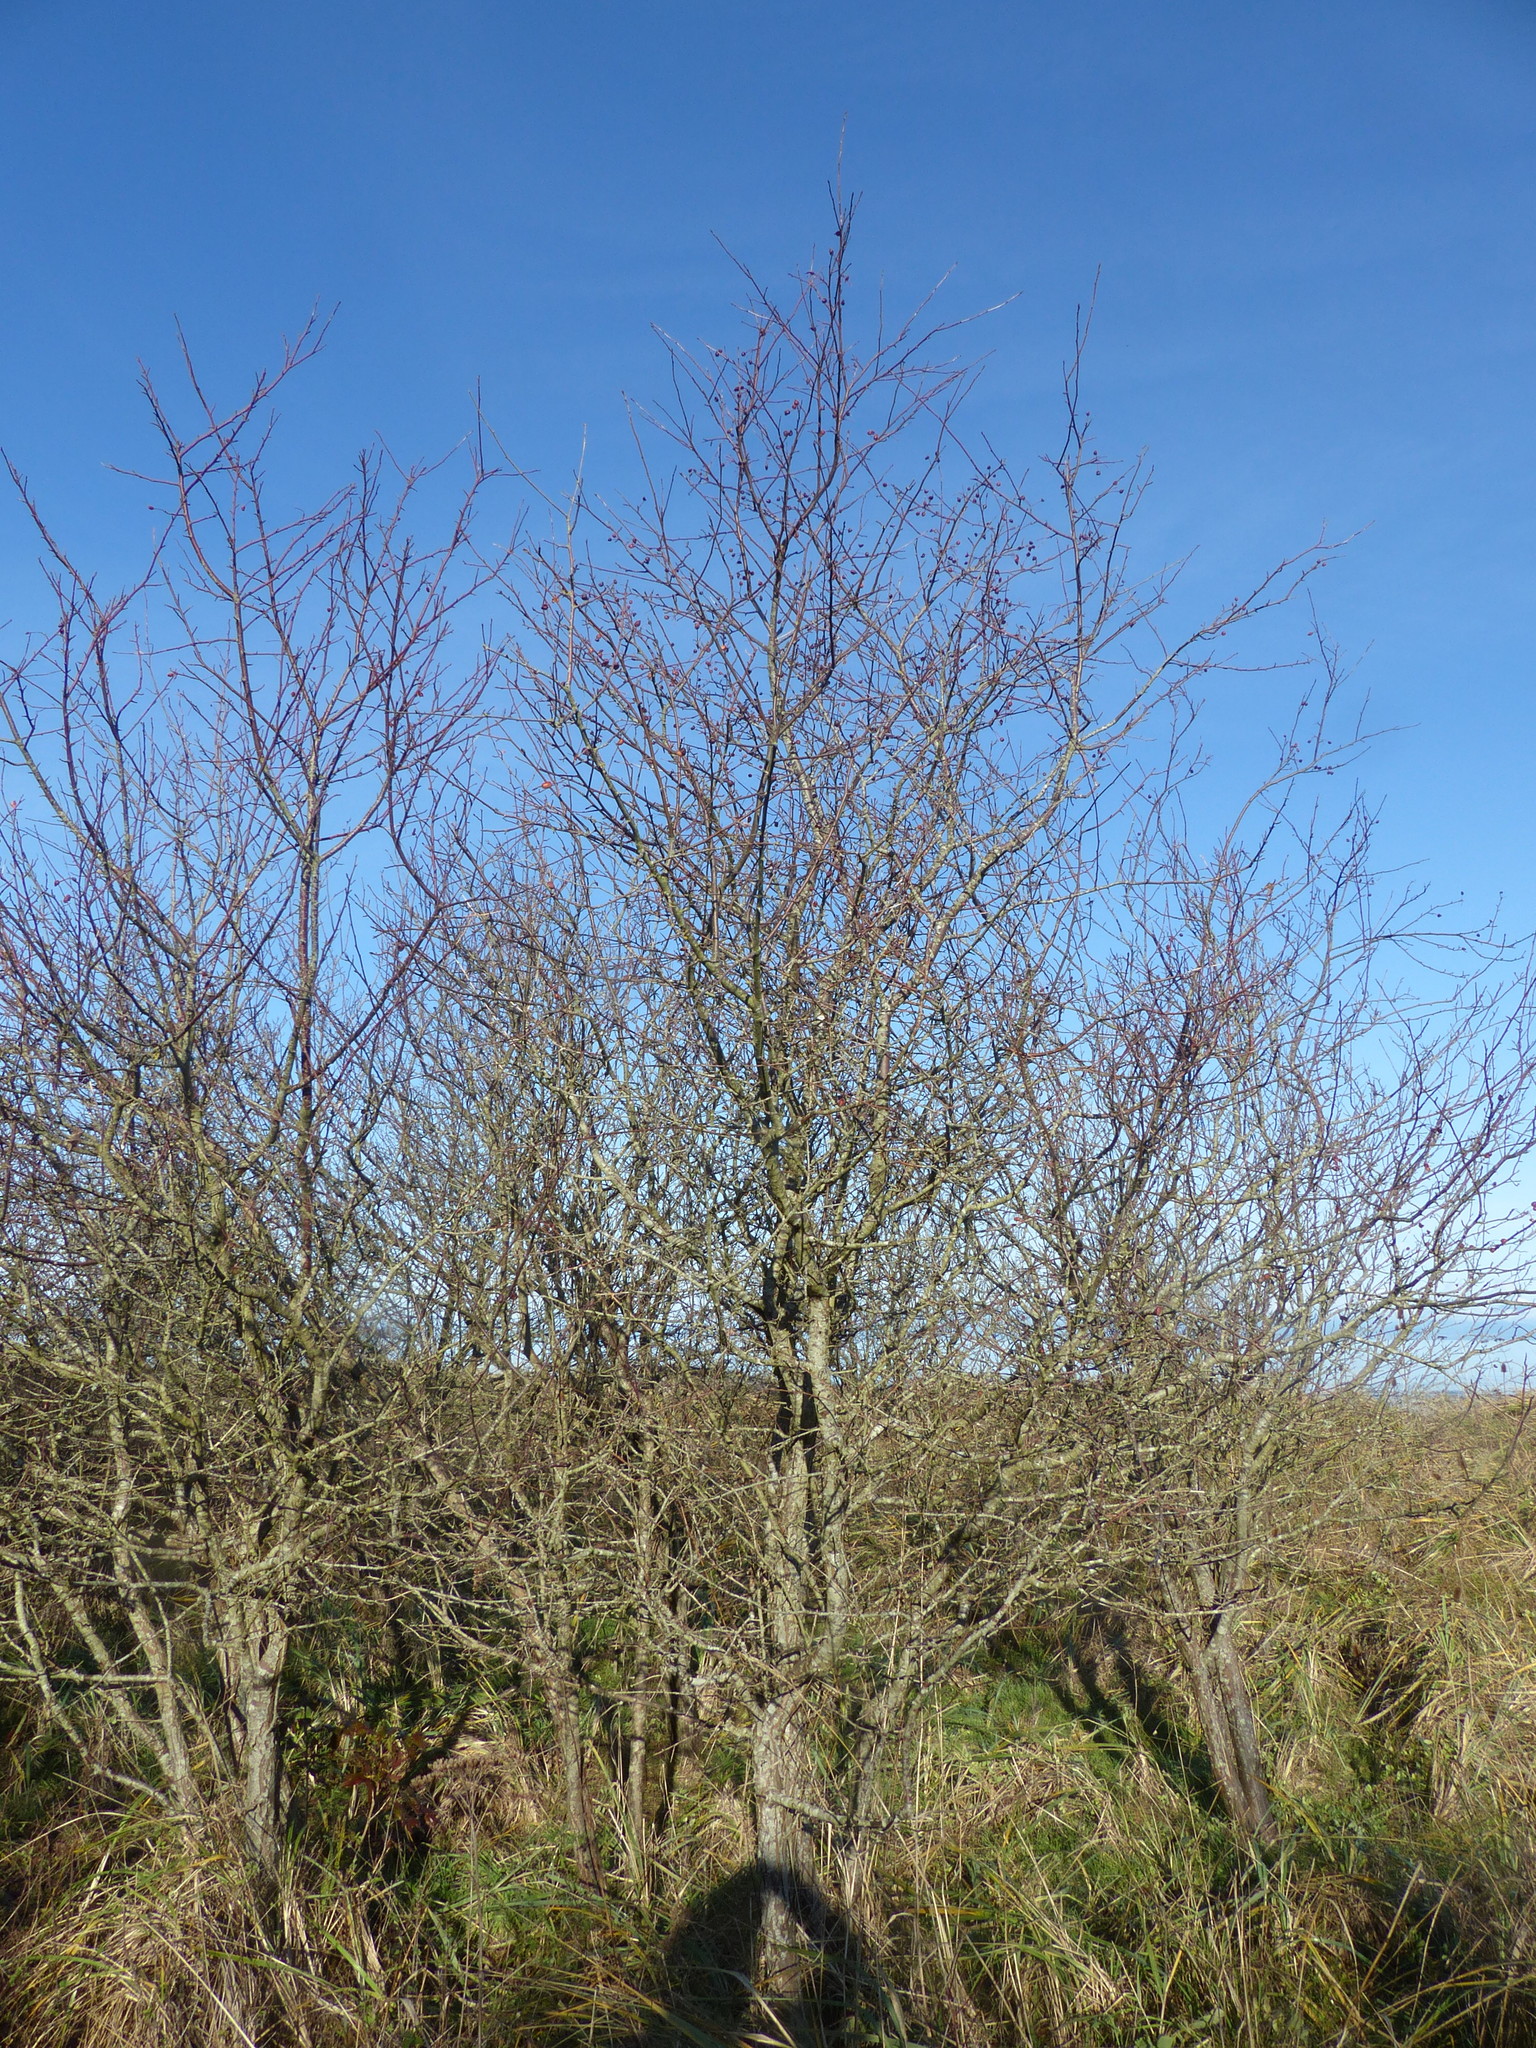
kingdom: Plantae
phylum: Tracheophyta
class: Magnoliopsida
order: Rosales
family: Rosaceae
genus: Malus
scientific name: Malus fusca
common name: Oregon crab apple
